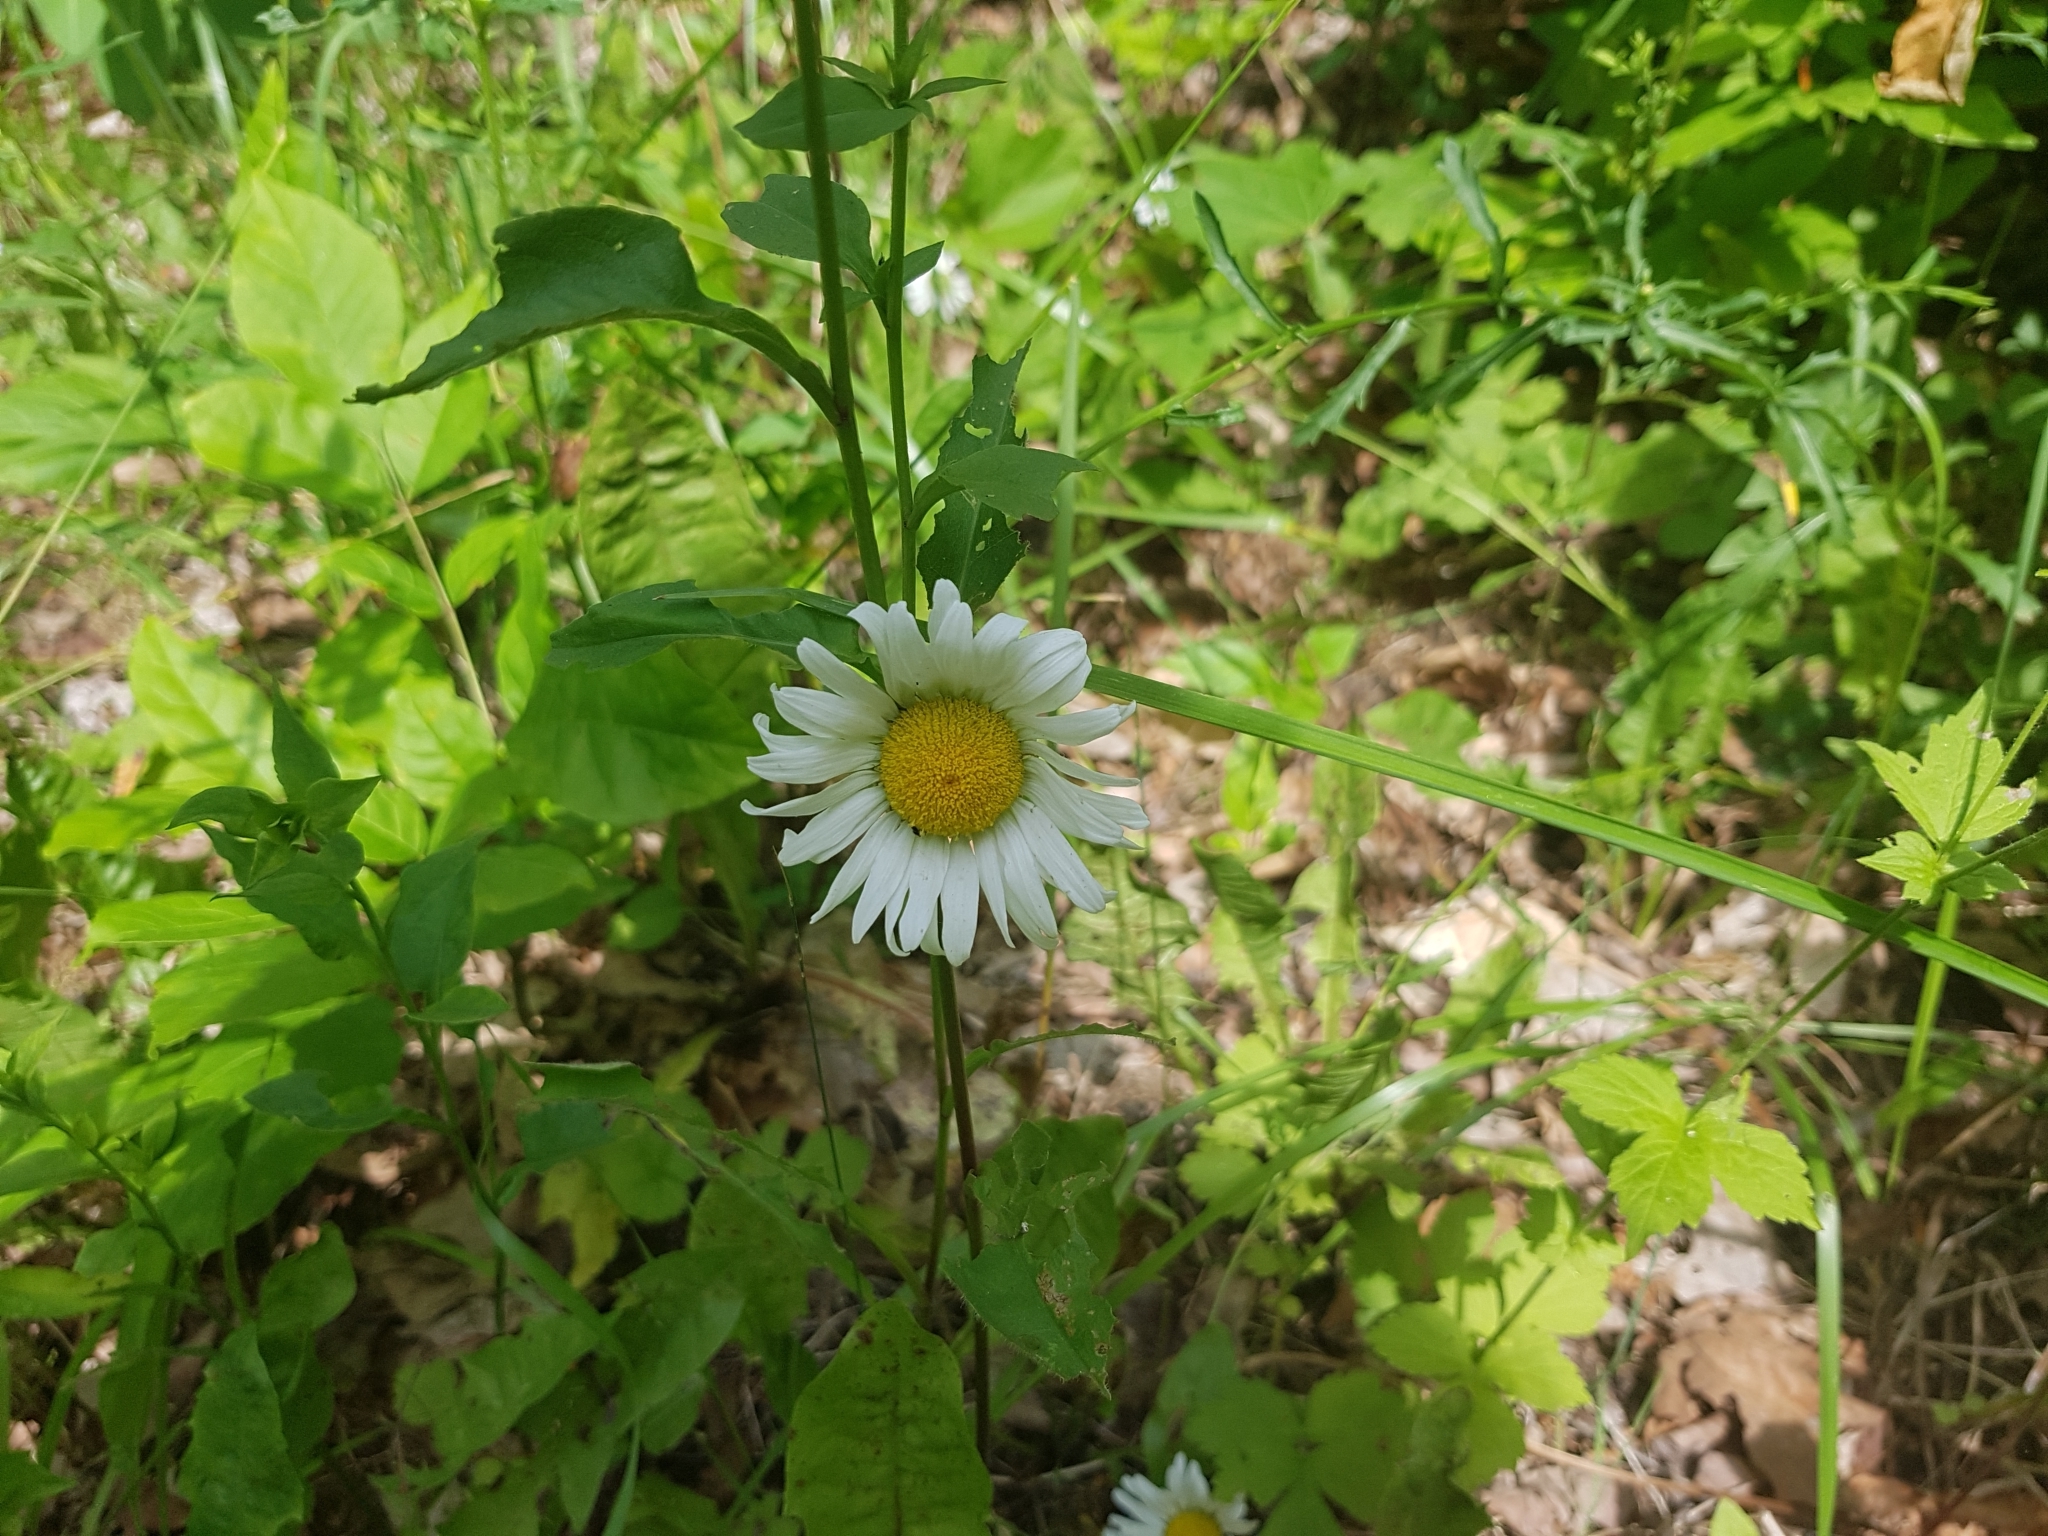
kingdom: Plantae
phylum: Tracheophyta
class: Magnoliopsida
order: Asterales
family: Asteraceae
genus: Leucanthemum
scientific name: Leucanthemum vulgare
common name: Oxeye daisy
